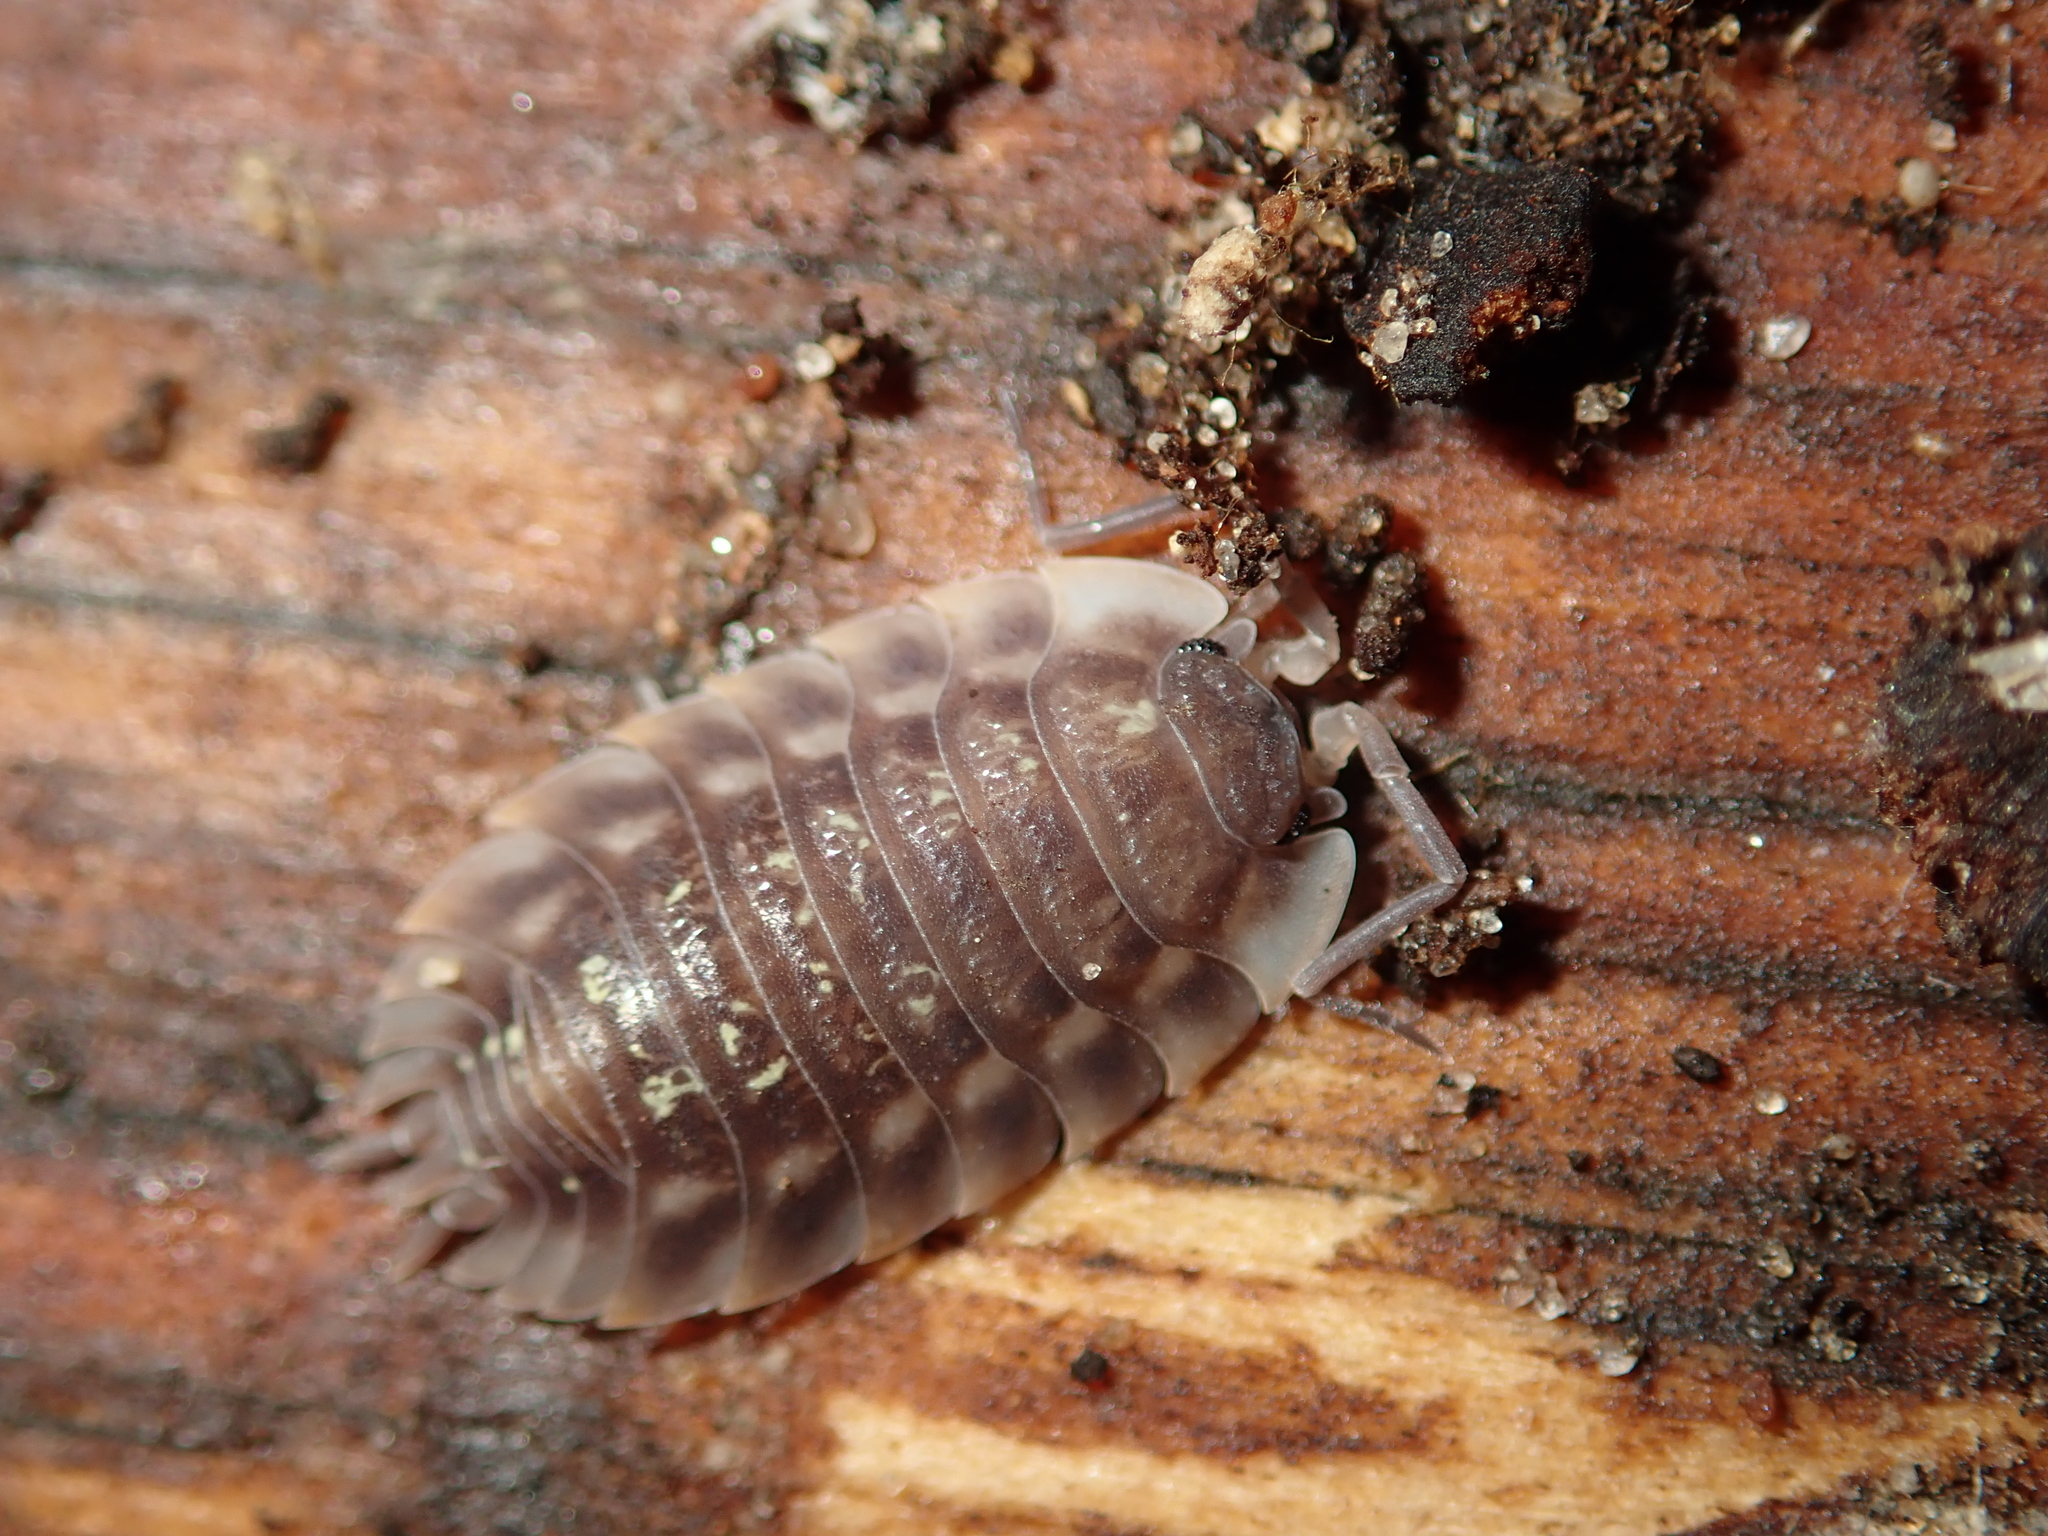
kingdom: Animalia
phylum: Arthropoda
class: Malacostraca
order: Isopoda
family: Oniscidae
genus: Oniscus
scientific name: Oniscus asellus
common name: Common shiny woodlouse
